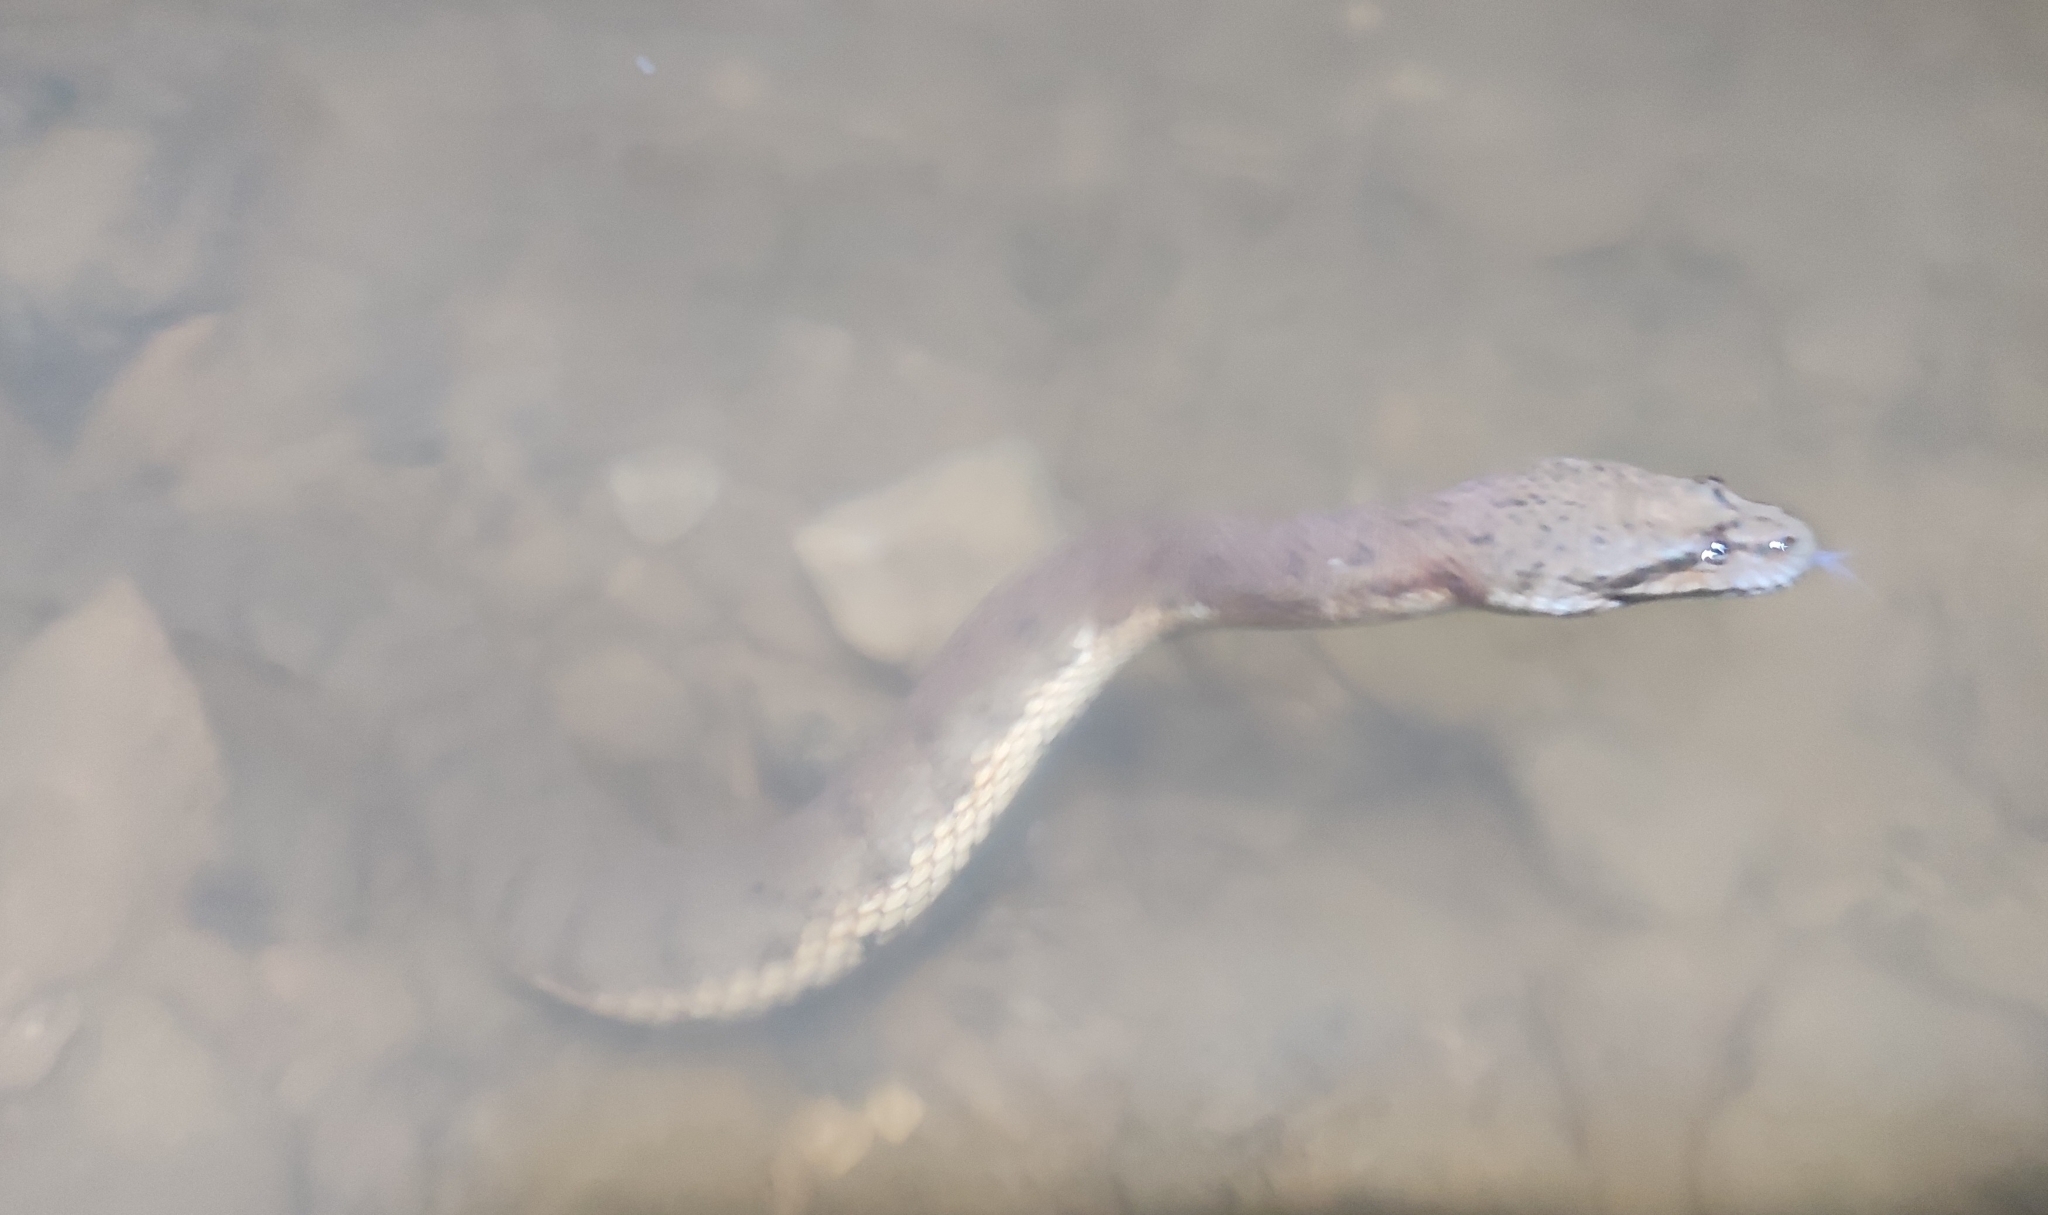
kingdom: Animalia
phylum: Chordata
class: Squamata
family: Homalopsidae
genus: Cerberus
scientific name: Cerberus schneiderii
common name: Southeast asian bockadam
